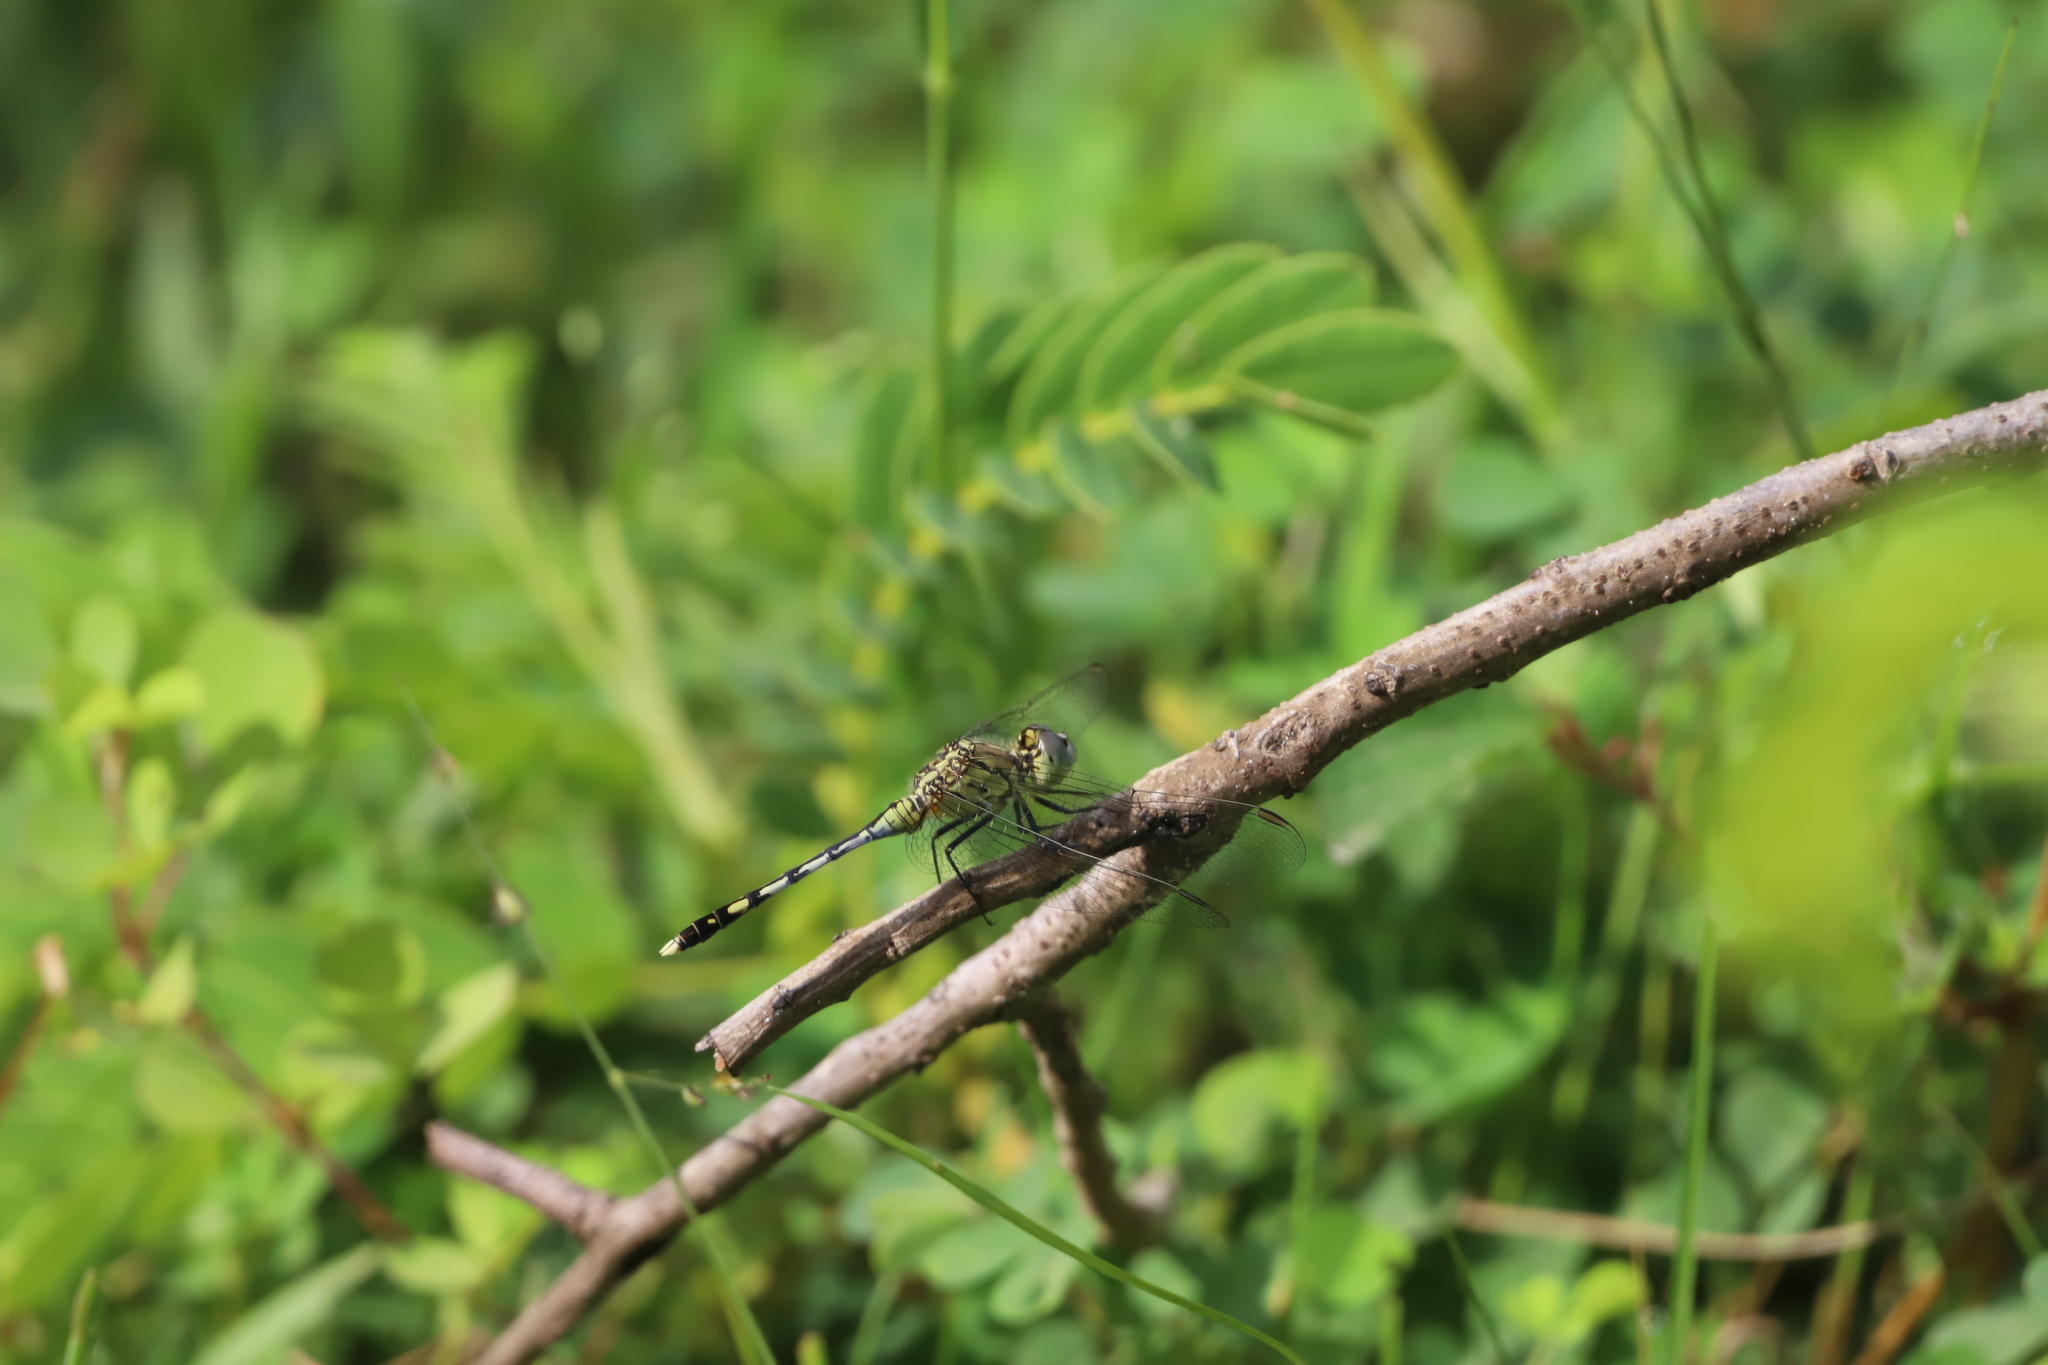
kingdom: Animalia
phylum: Arthropoda
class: Insecta
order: Odonata
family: Libellulidae
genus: Diplacodes
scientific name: Diplacodes trivialis
